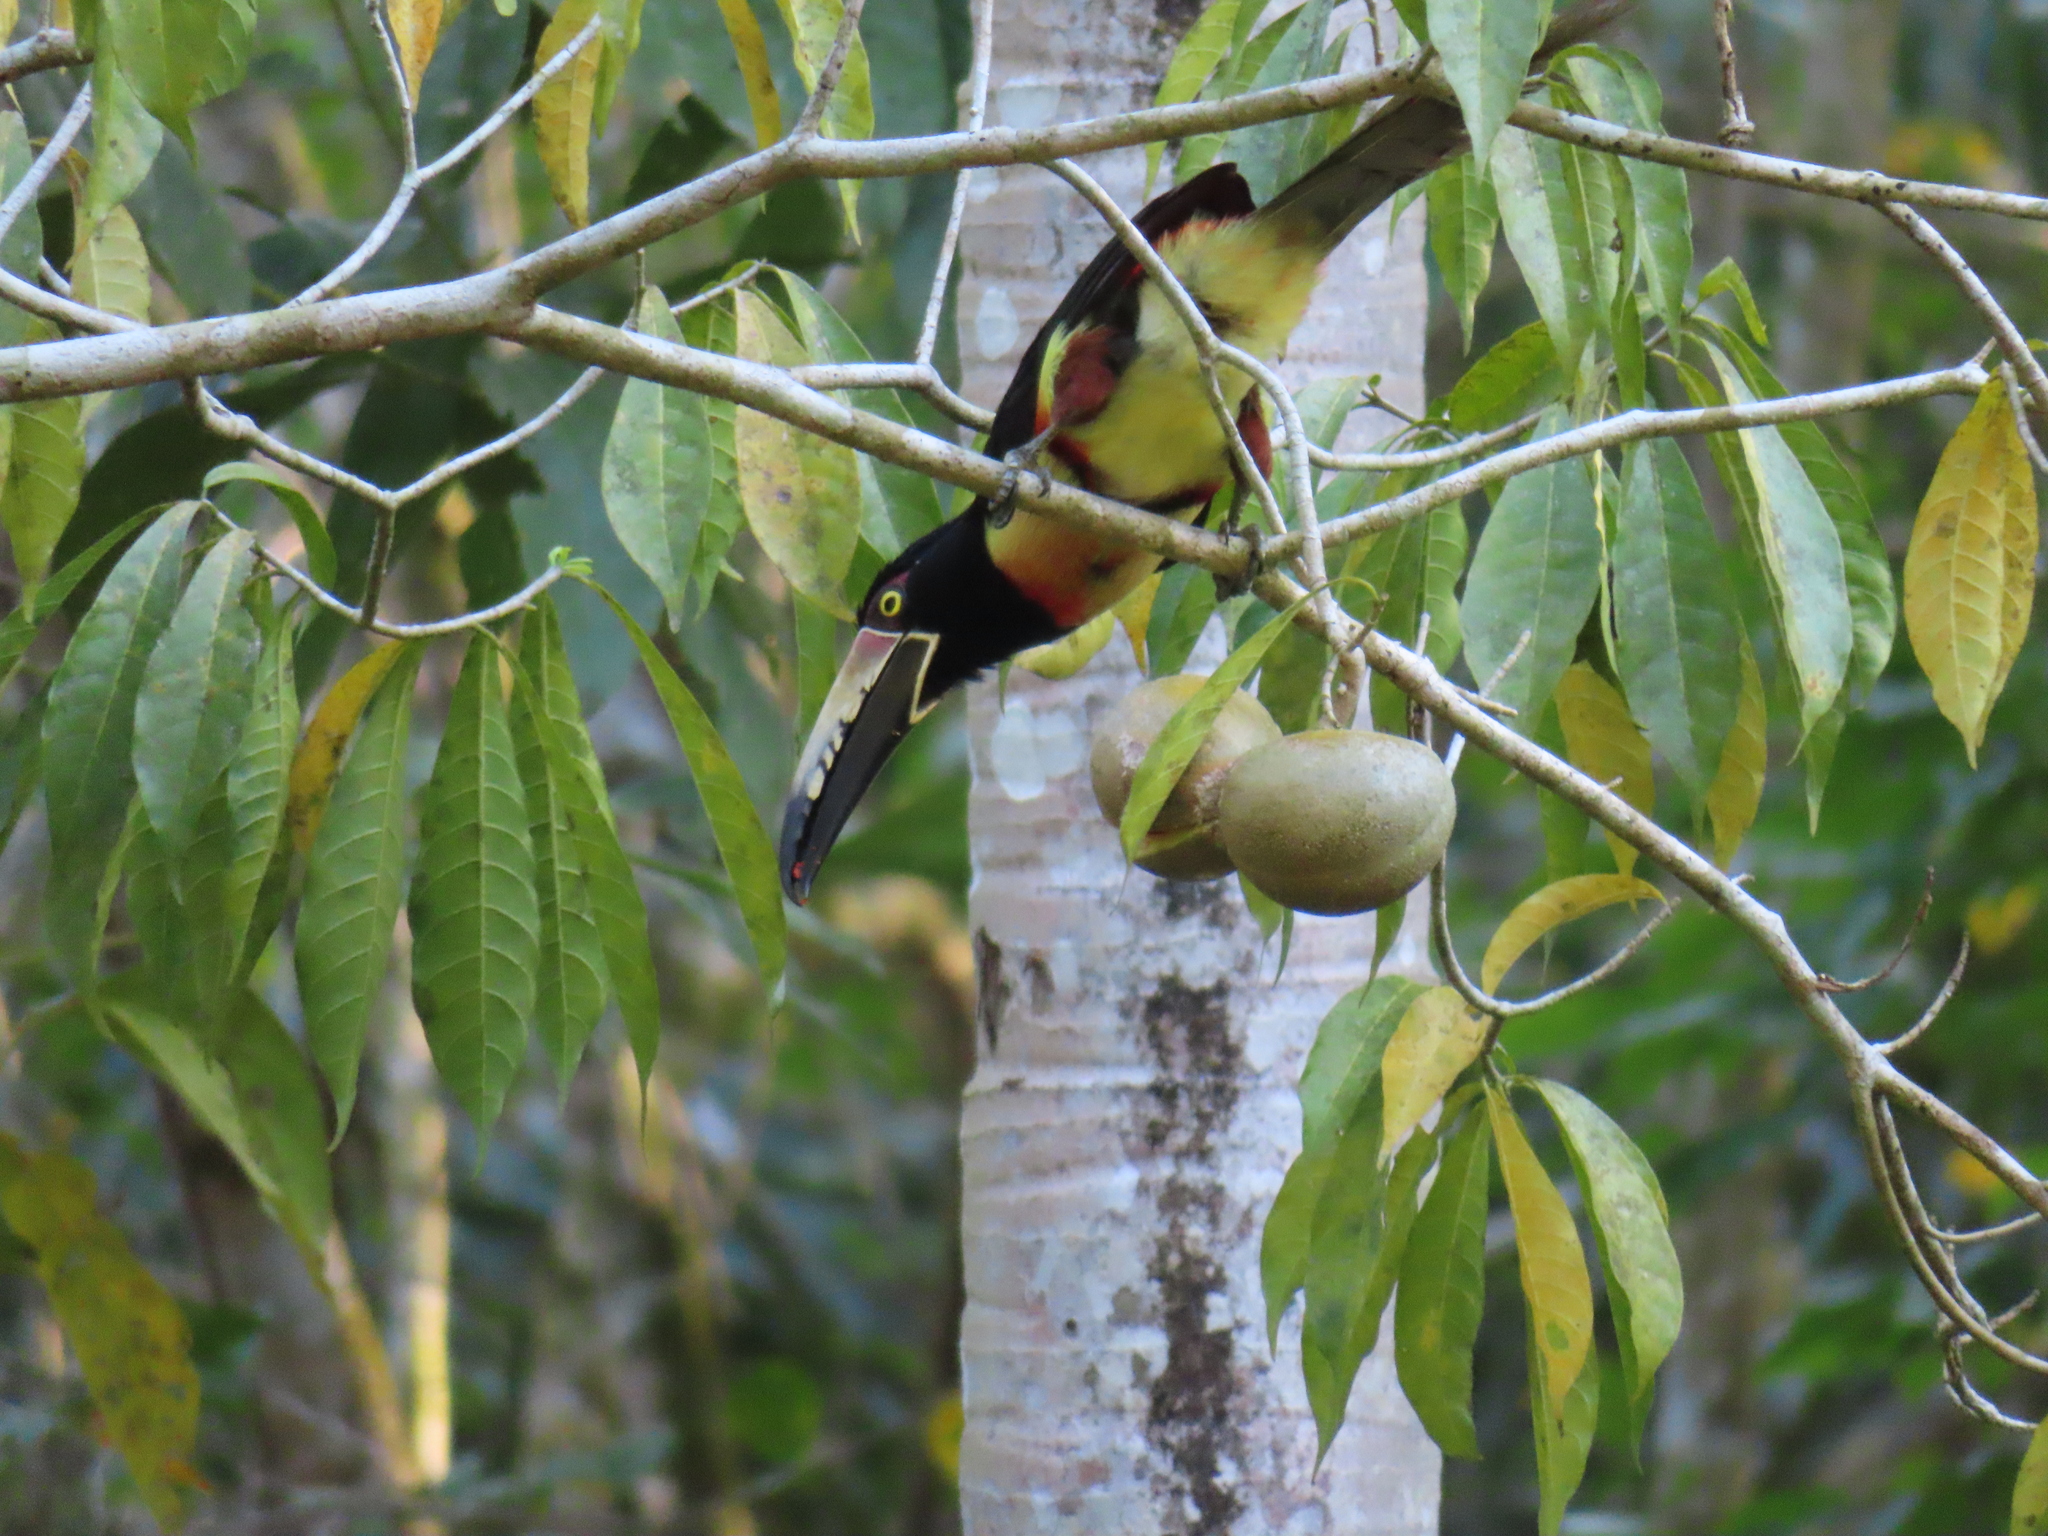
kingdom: Animalia
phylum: Chordata
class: Aves
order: Piciformes
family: Ramphastidae
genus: Pteroglossus
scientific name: Pteroglossus torquatus
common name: Collared aracari
